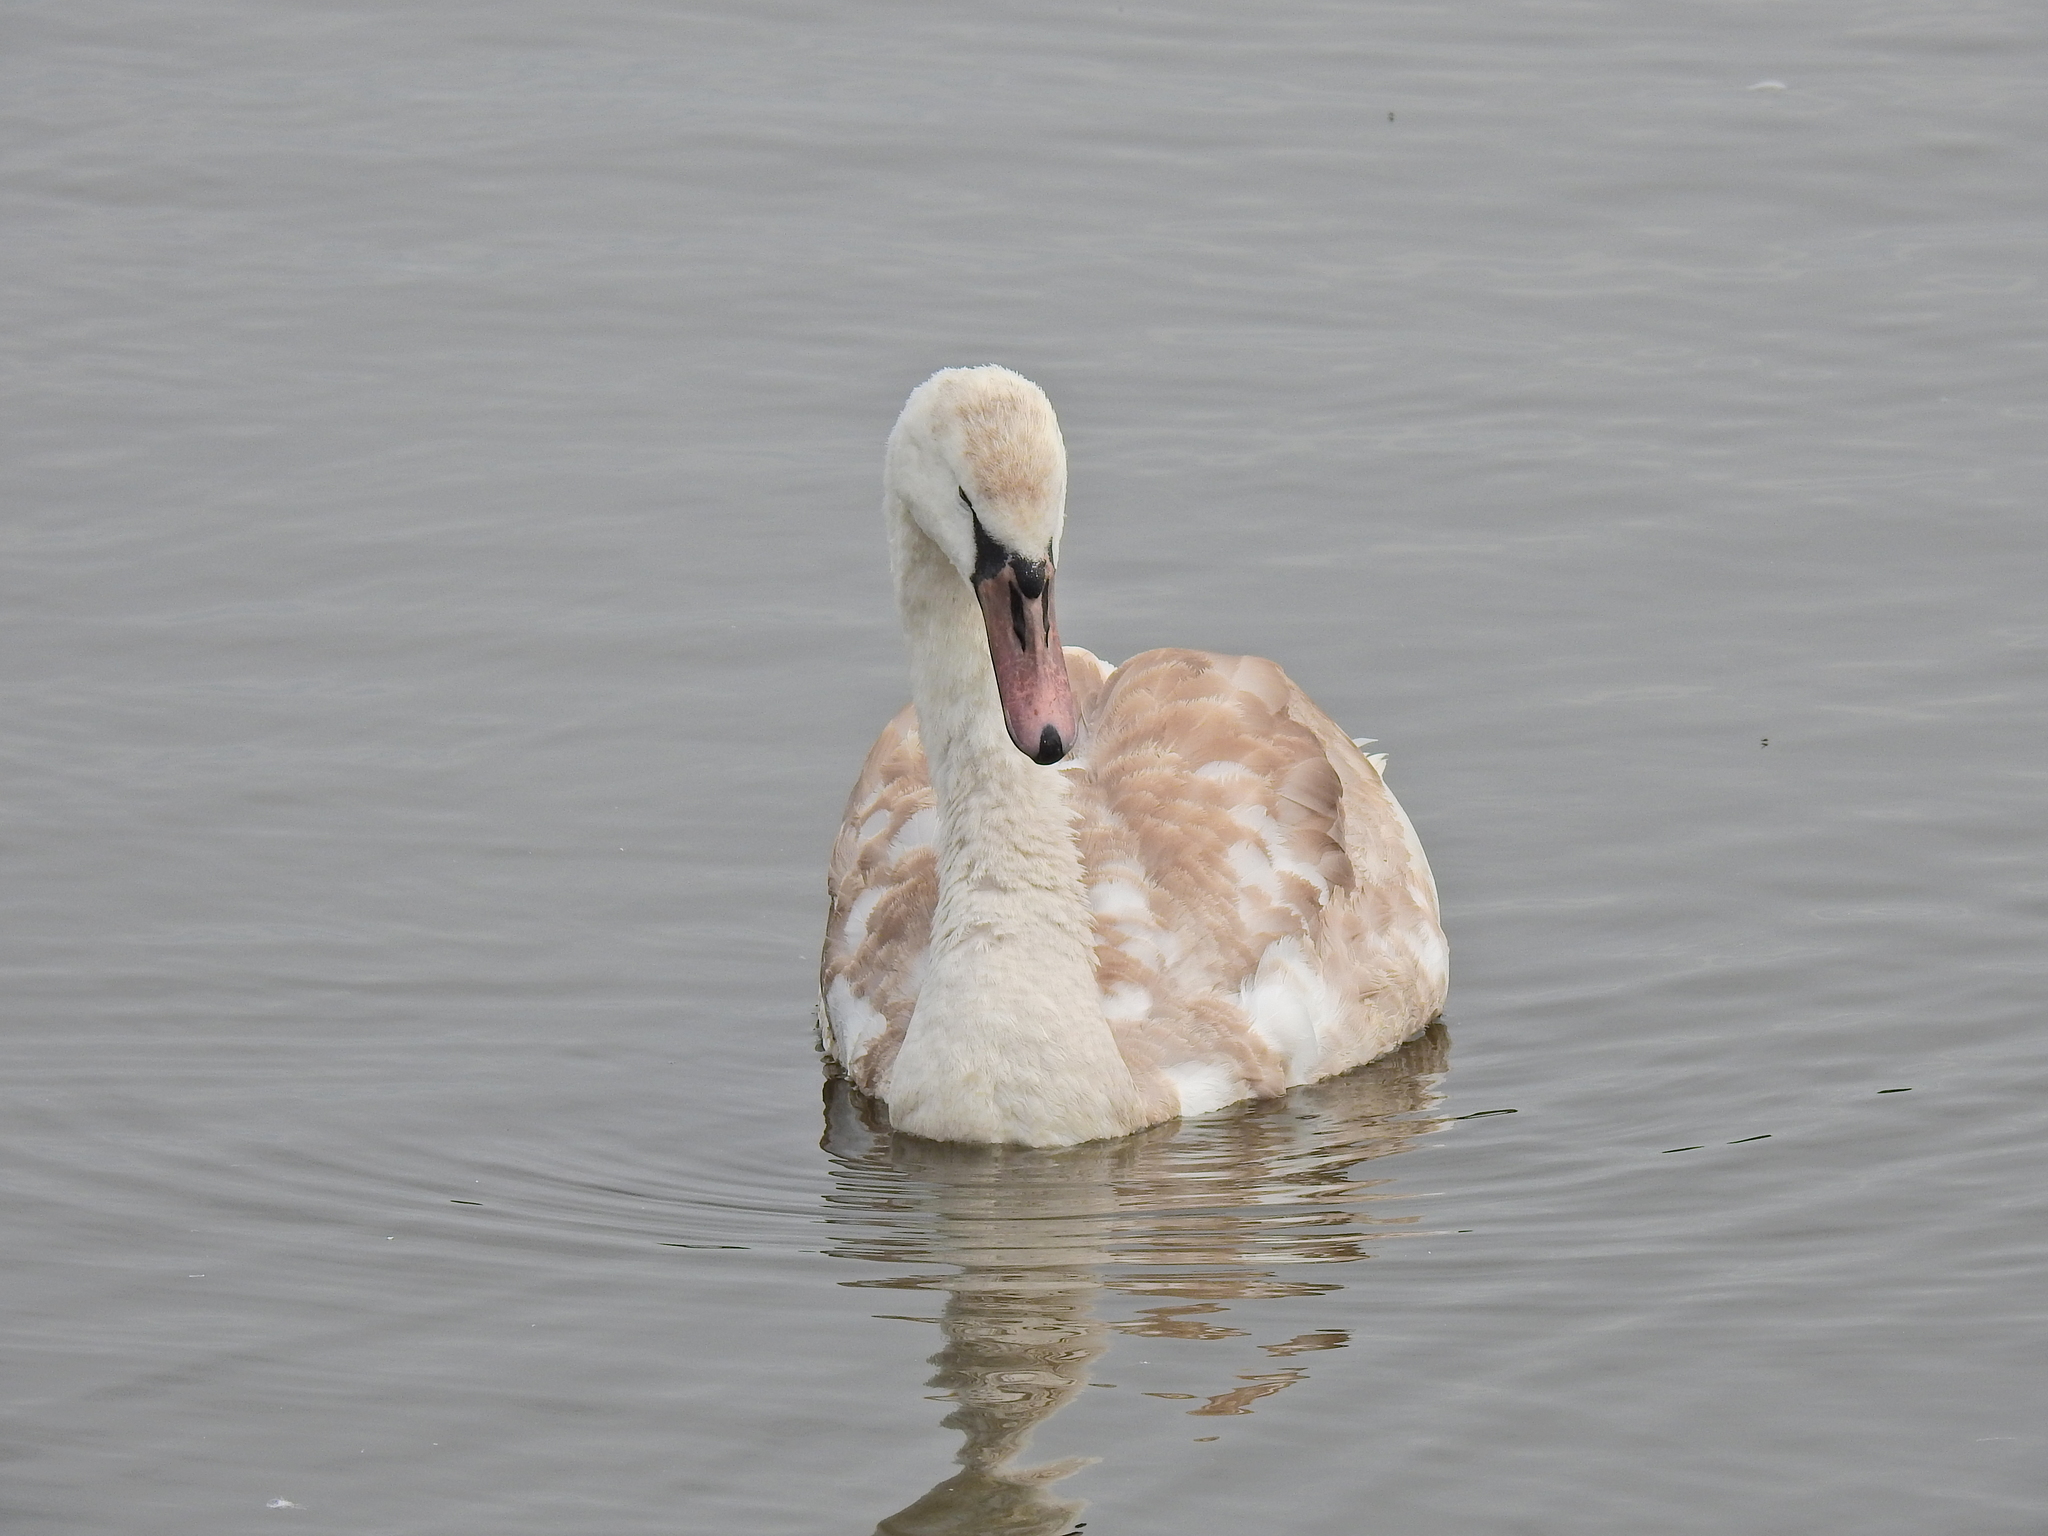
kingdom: Animalia
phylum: Chordata
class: Aves
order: Anseriformes
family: Anatidae
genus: Cygnus
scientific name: Cygnus olor
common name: Mute swan
